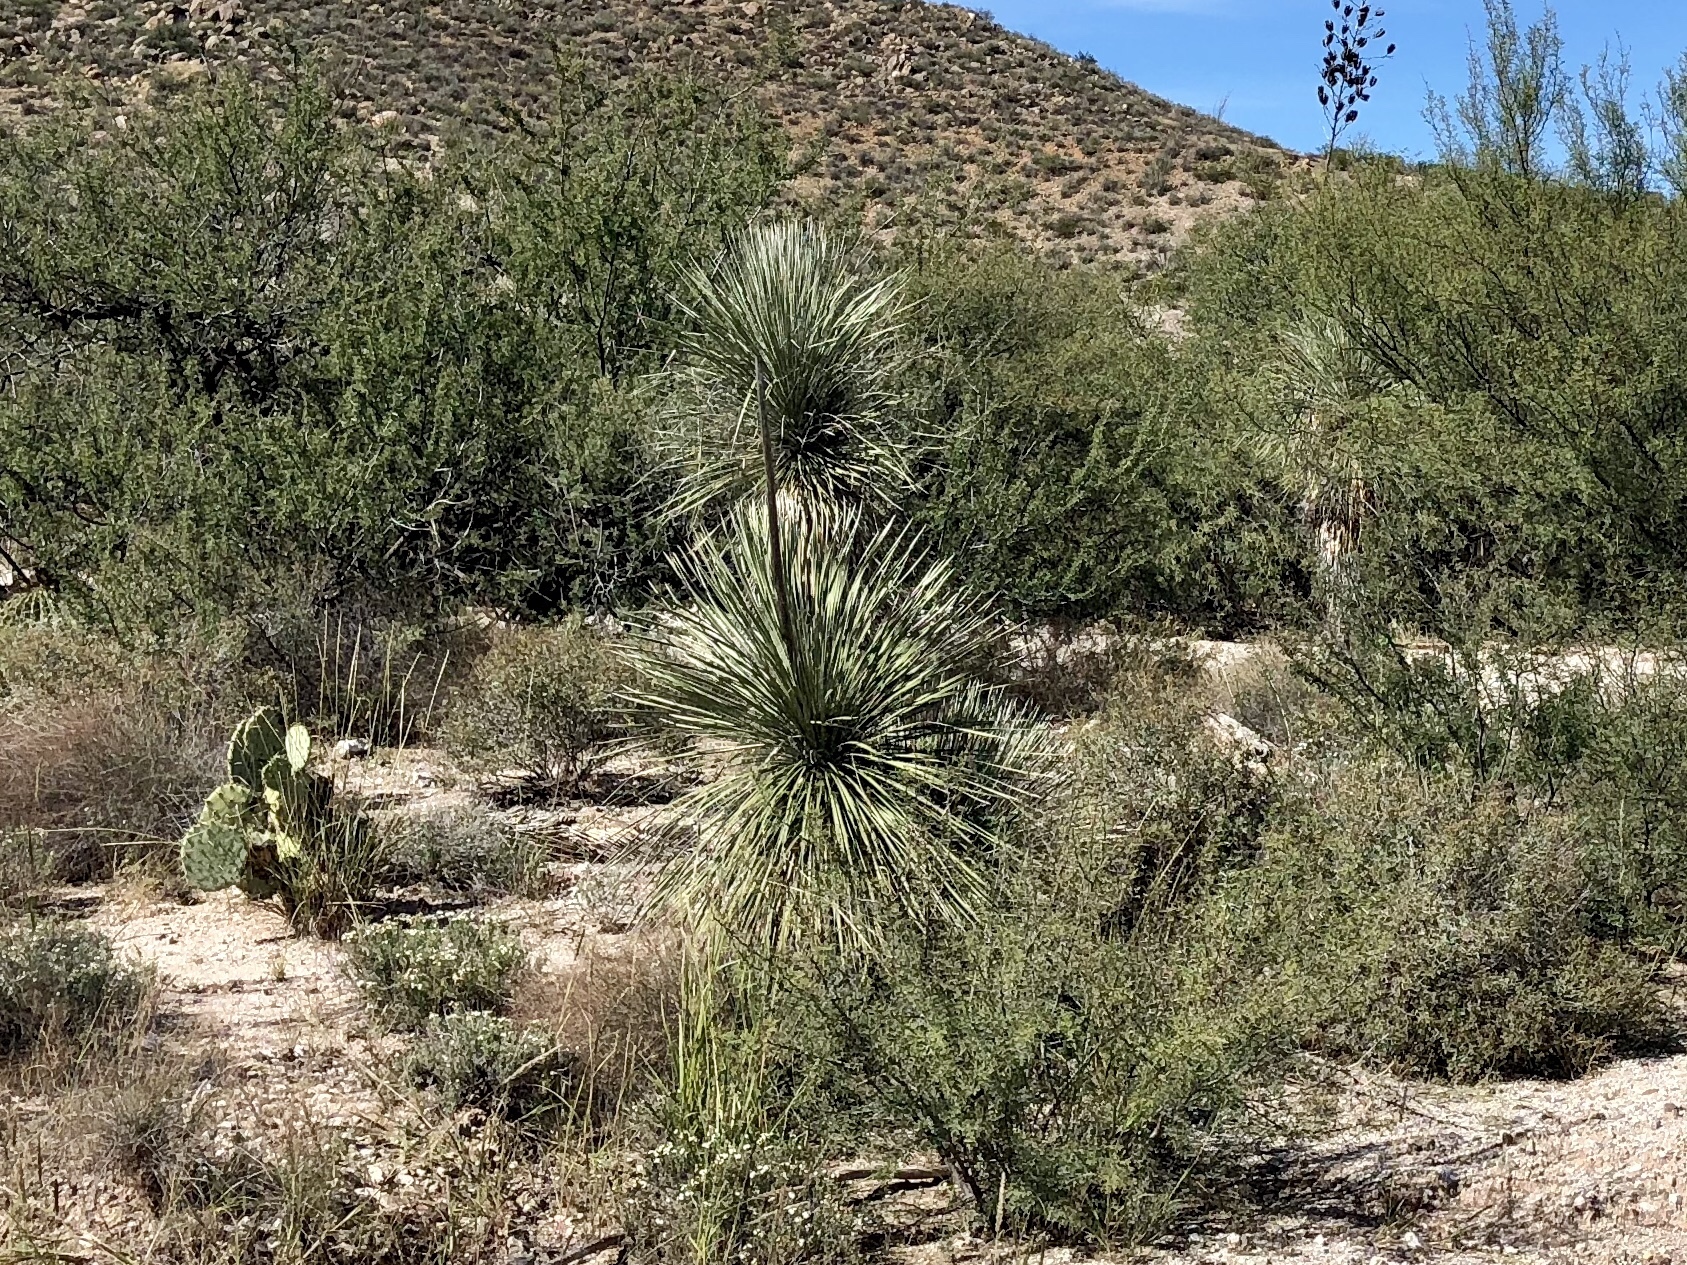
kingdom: Plantae
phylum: Tracheophyta
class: Liliopsida
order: Asparagales
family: Asparagaceae
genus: Yucca
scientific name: Yucca elata
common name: Palmella
